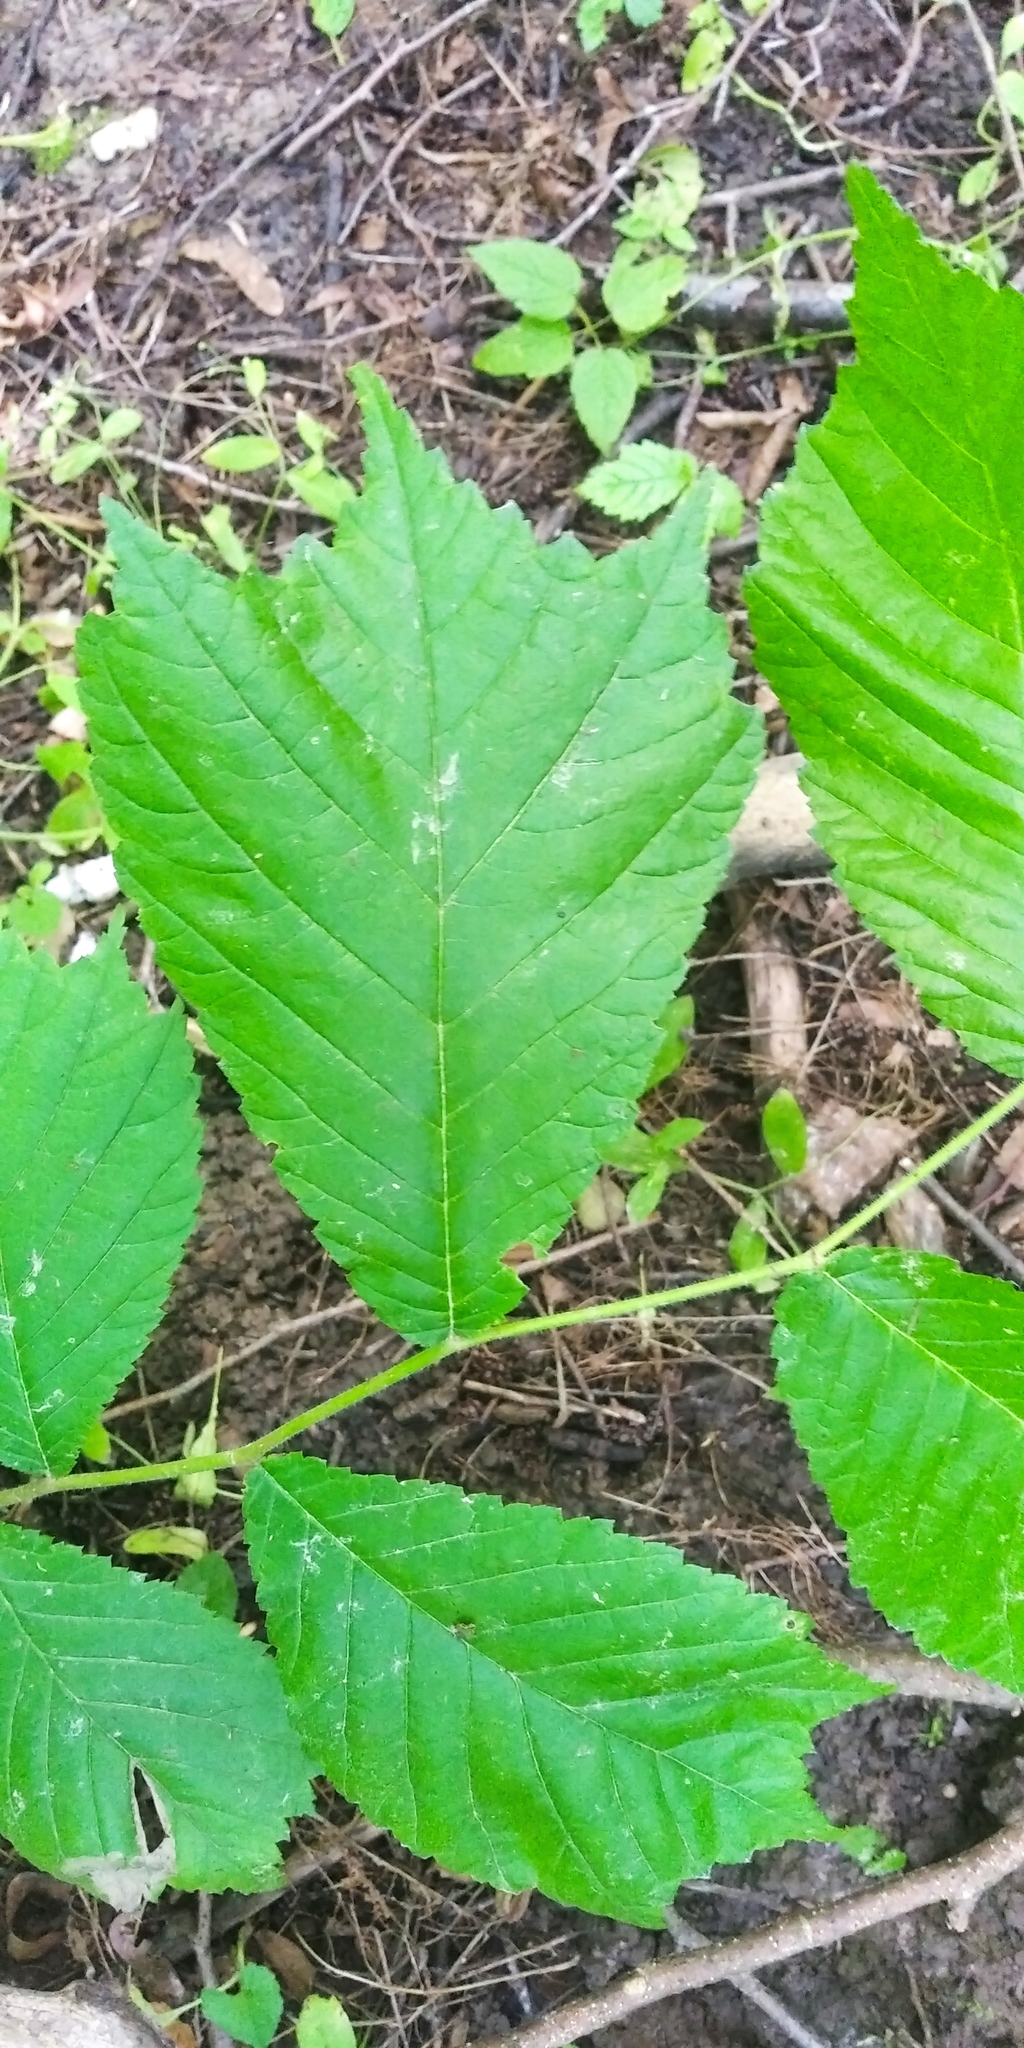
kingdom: Plantae
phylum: Tracheophyta
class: Magnoliopsida
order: Rosales
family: Ulmaceae
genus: Ulmus
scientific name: Ulmus glabra
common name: Wych elm
